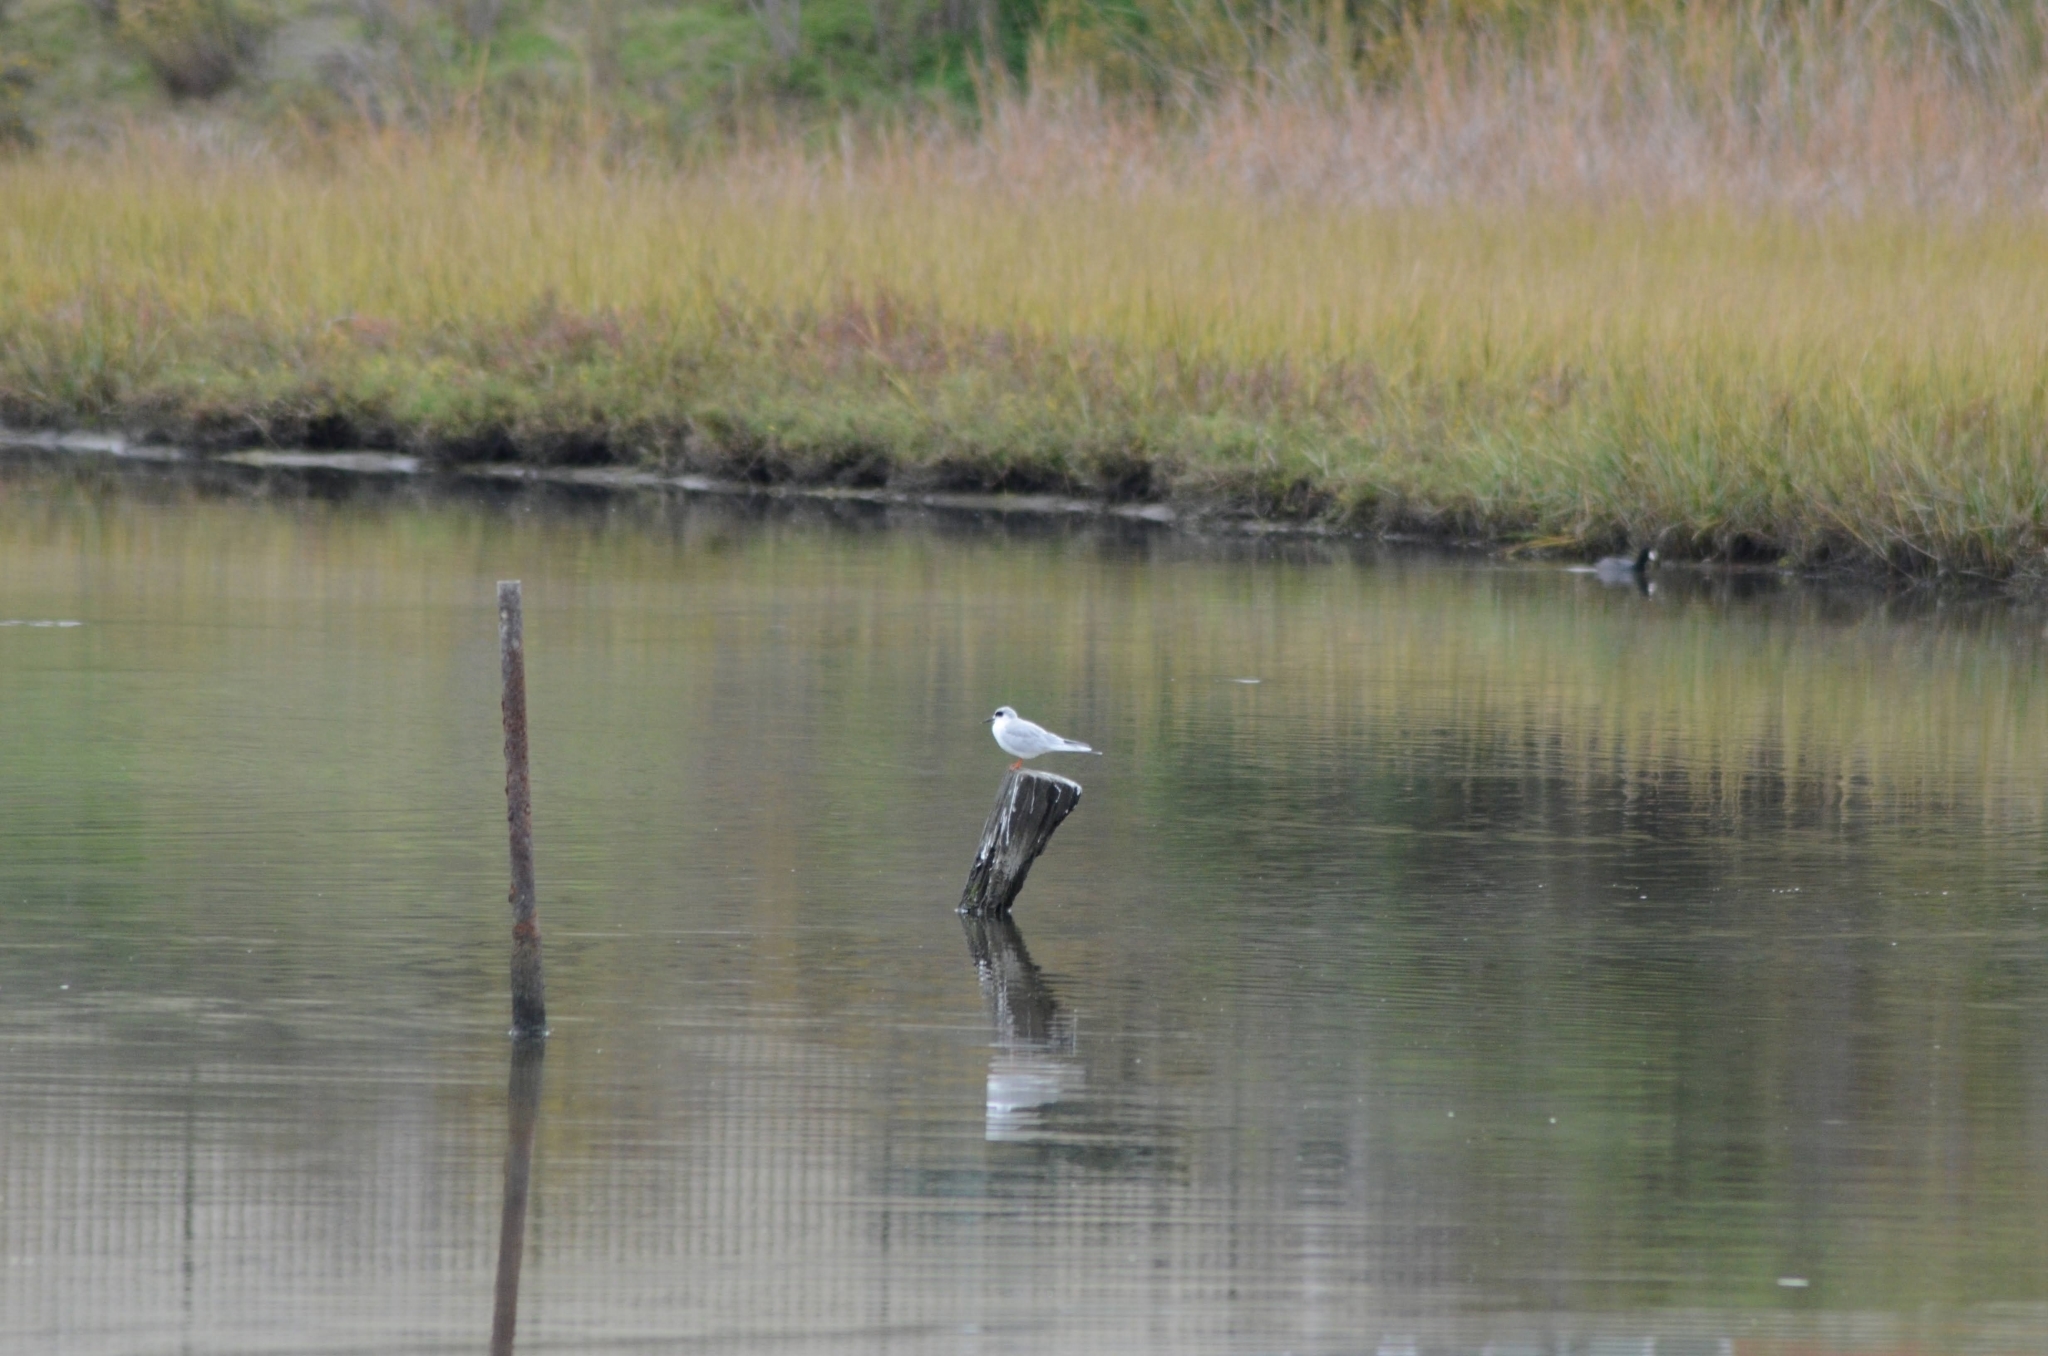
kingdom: Animalia
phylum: Chordata
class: Aves
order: Charadriiformes
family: Laridae
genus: Sterna
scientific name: Sterna forsteri
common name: Forster's tern
